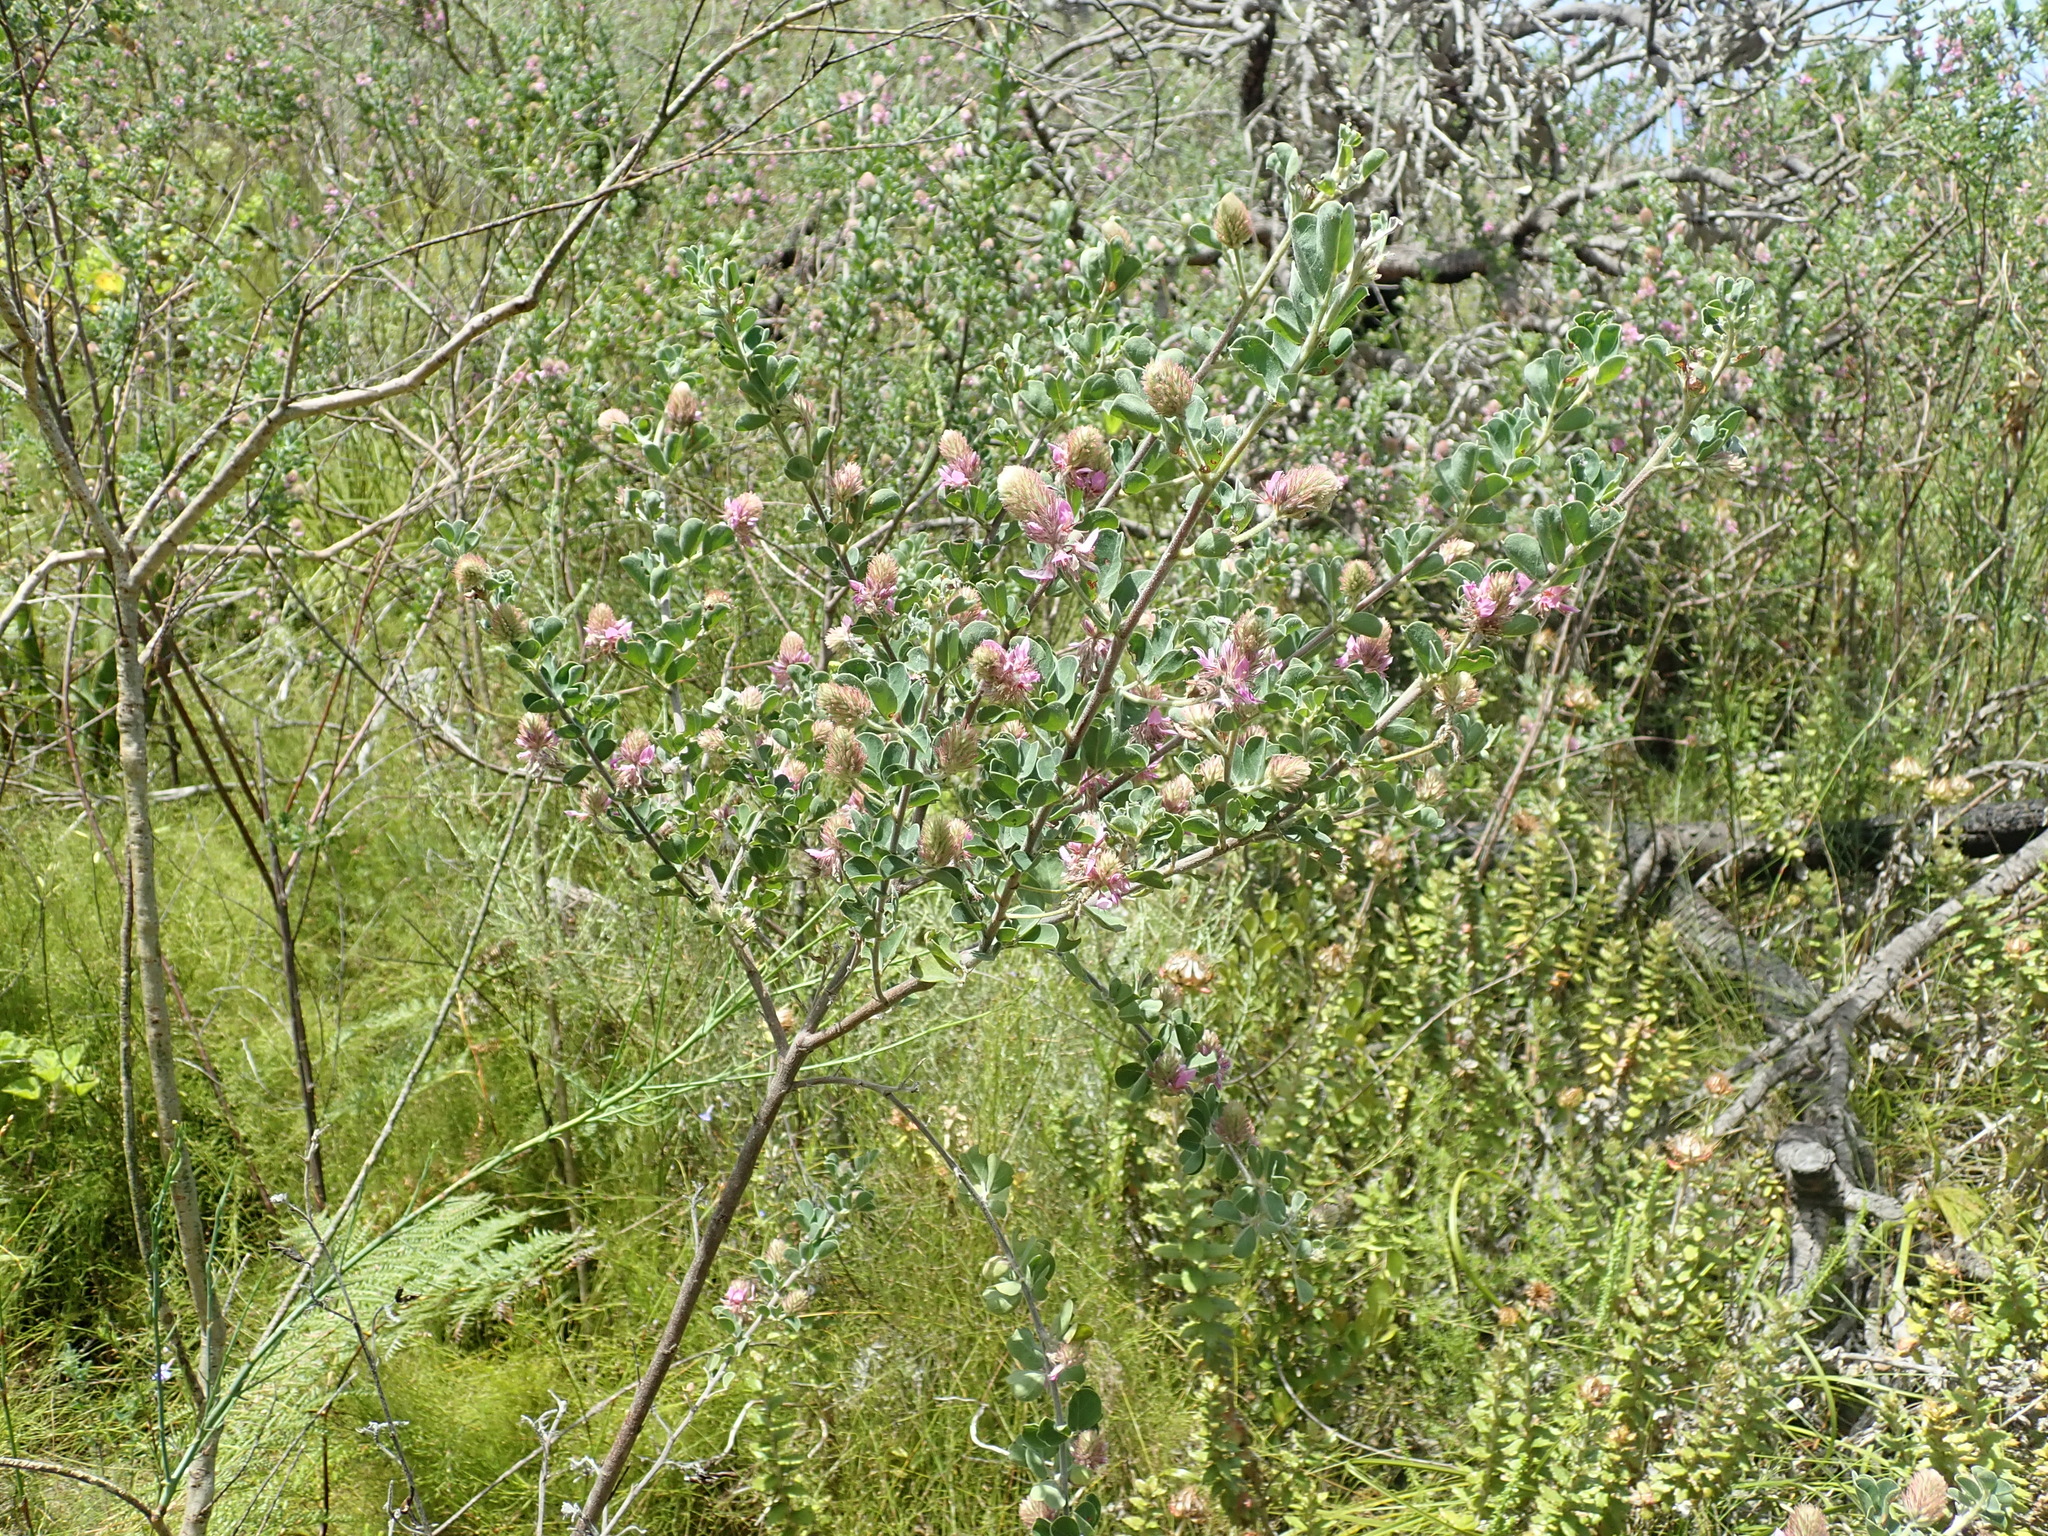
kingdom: Plantae
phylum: Tracheophyta
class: Magnoliopsida
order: Fabales
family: Fabaceae
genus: Indigofera
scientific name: Indigofera superba
